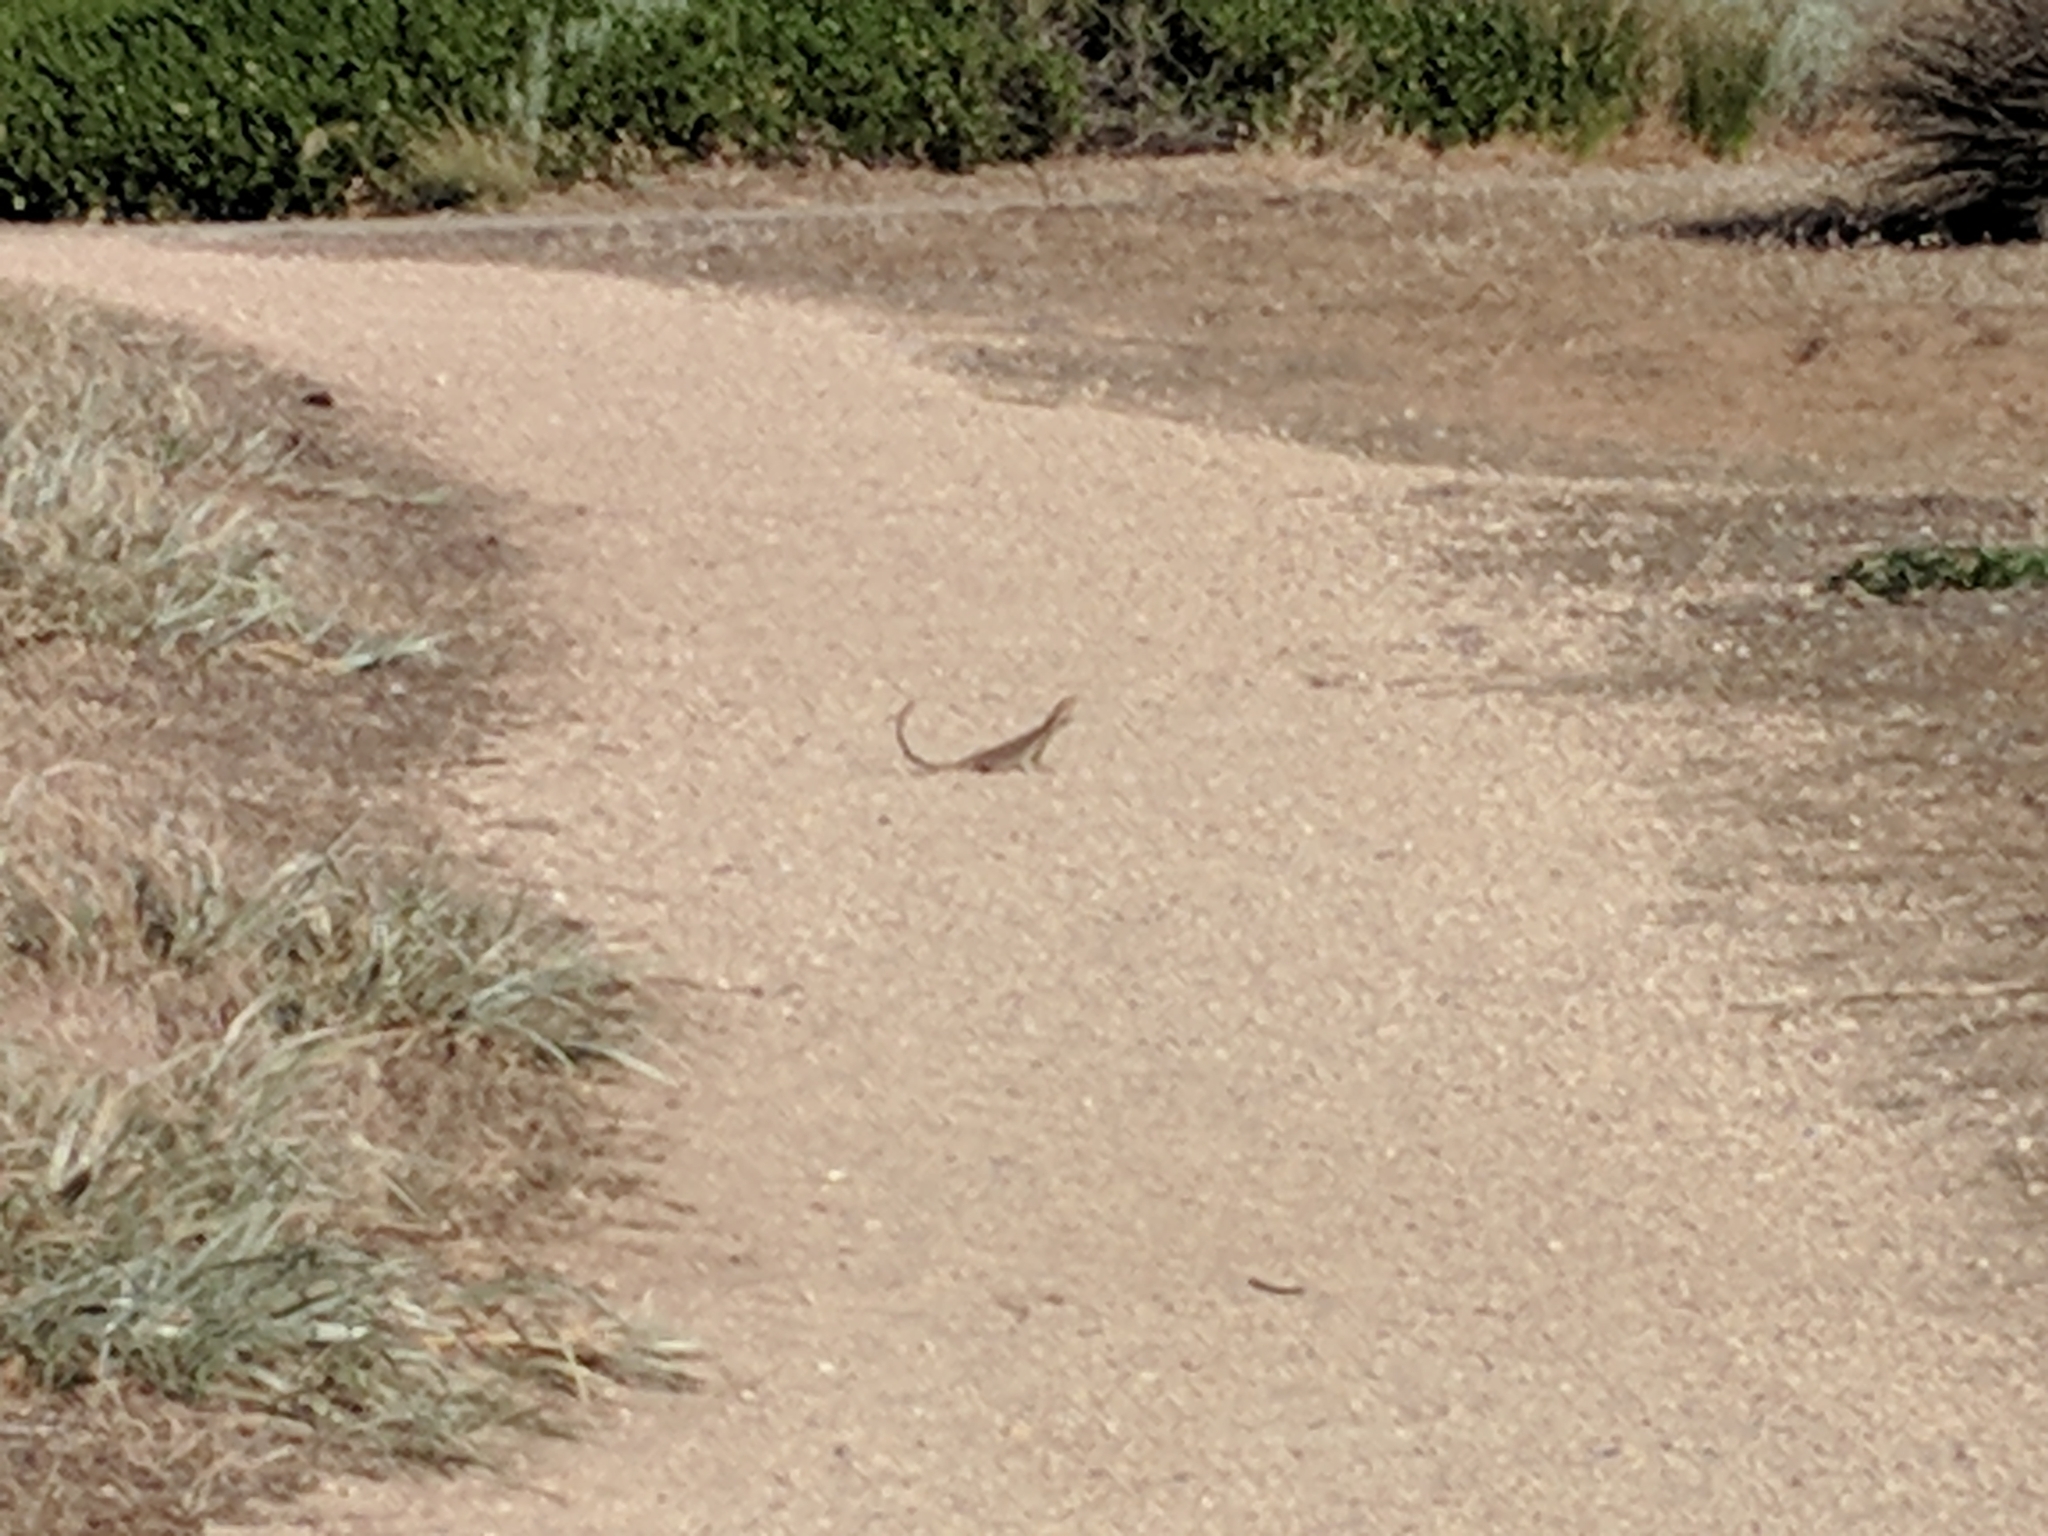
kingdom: Animalia
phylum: Chordata
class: Squamata
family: Agamidae
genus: Pogona
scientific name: Pogona barbata
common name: Bearded dragon
